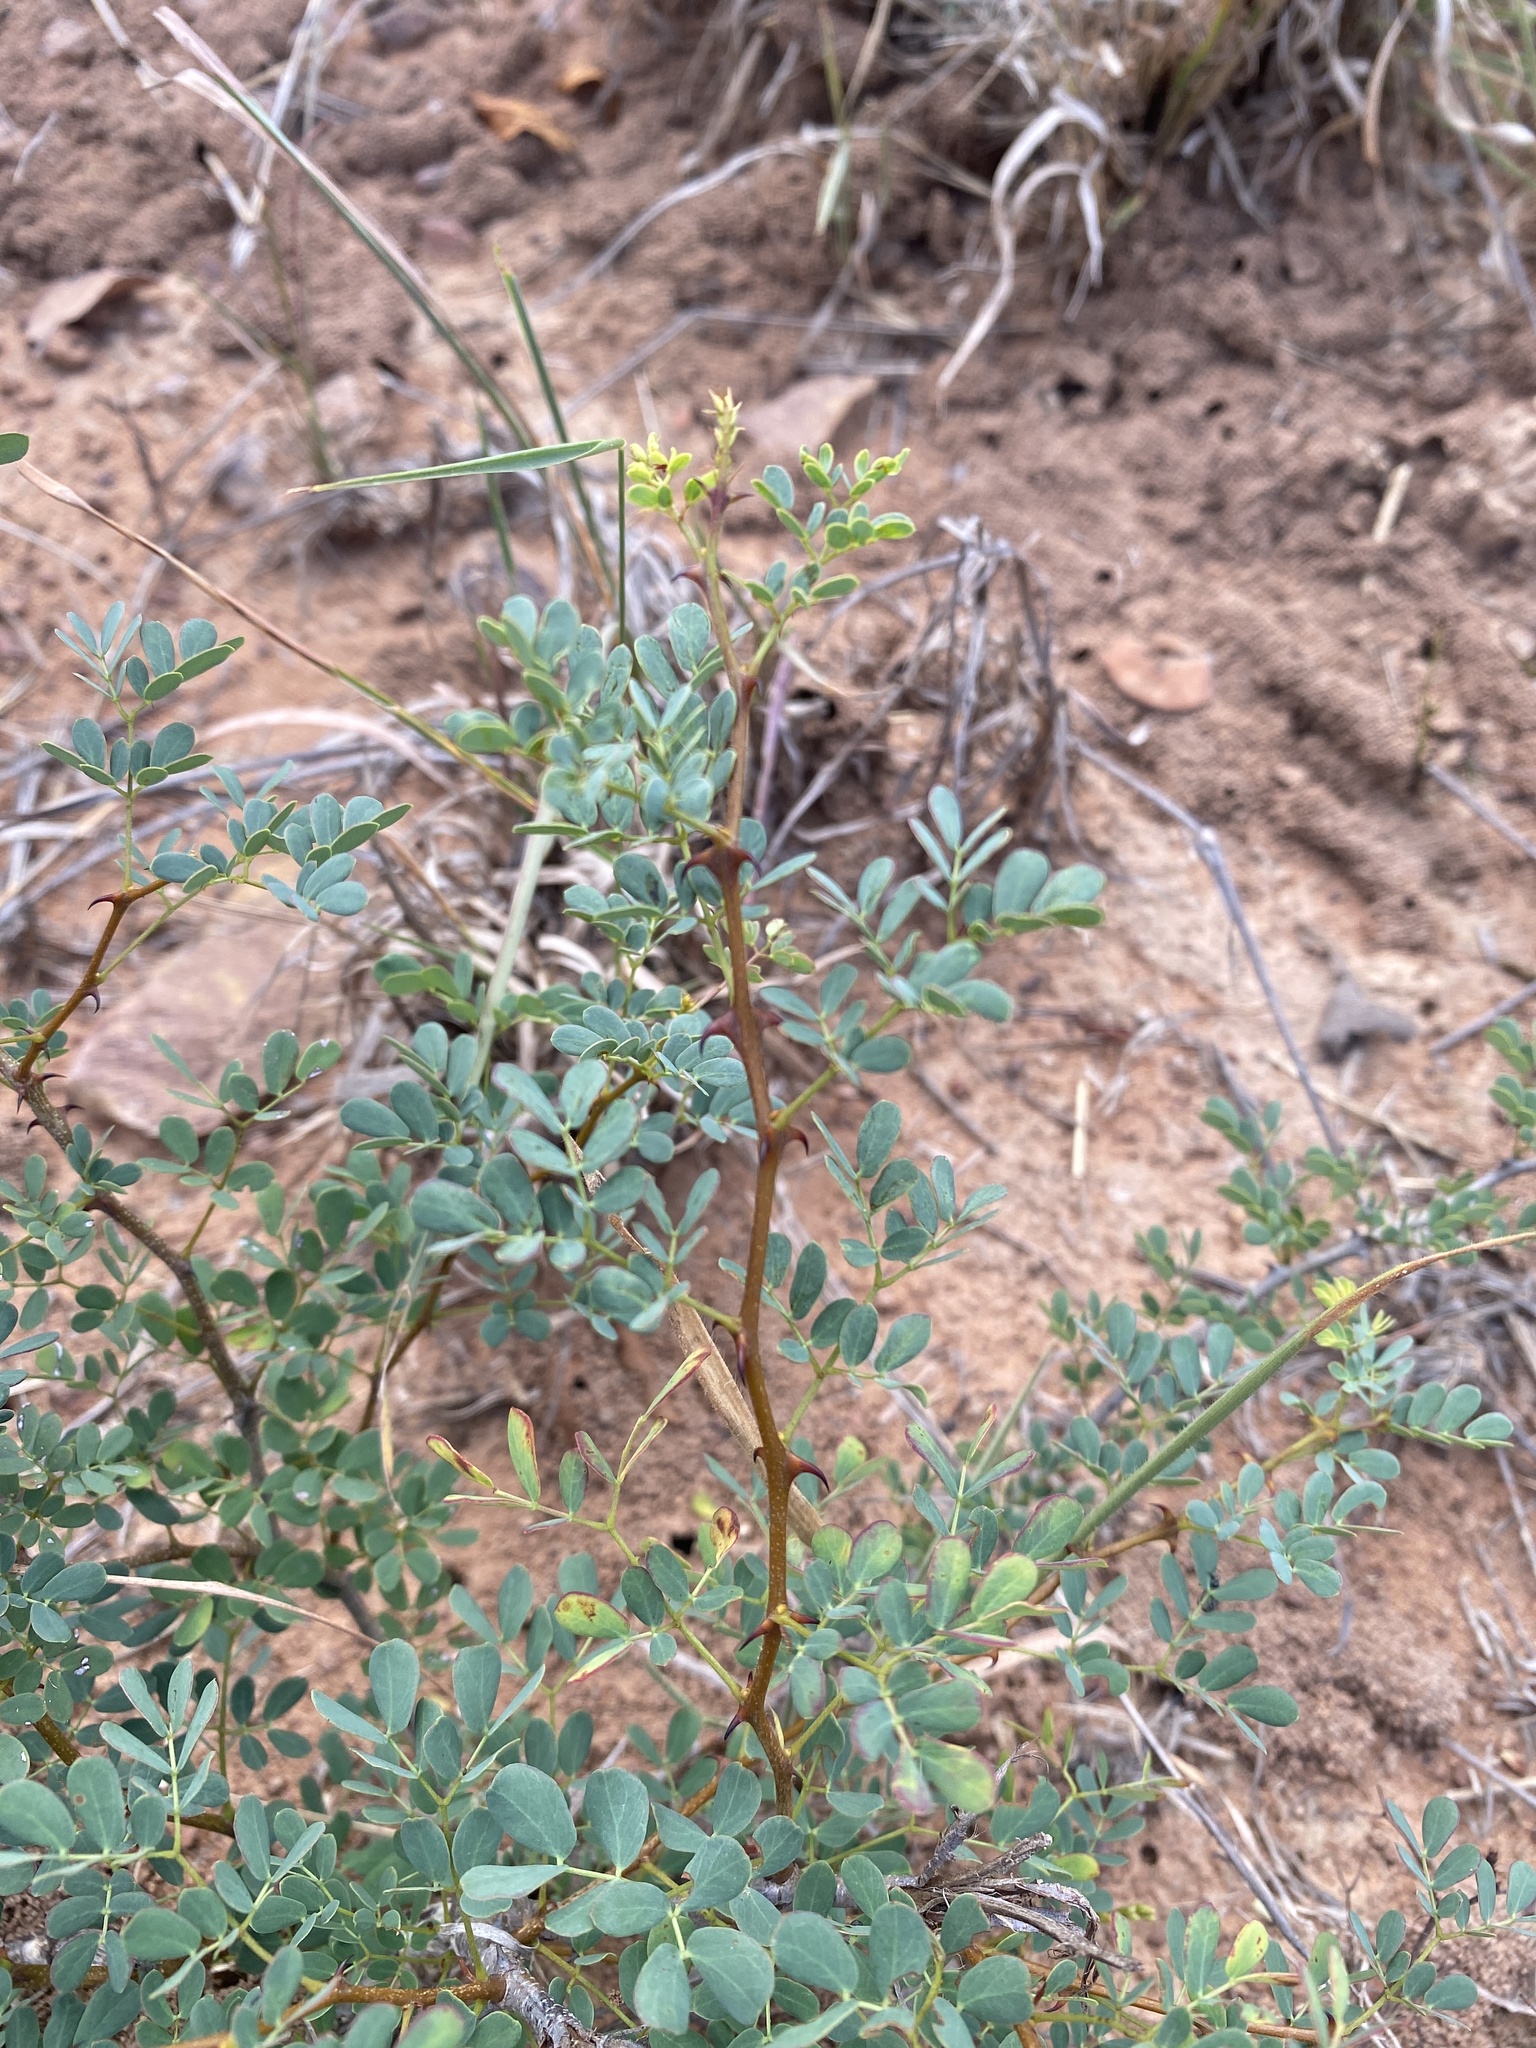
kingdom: Plantae
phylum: Tracheophyta
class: Magnoliopsida
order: Fabales
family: Fabaceae
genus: Senegalia
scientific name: Senegalia burkei
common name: Black monkey thorn
